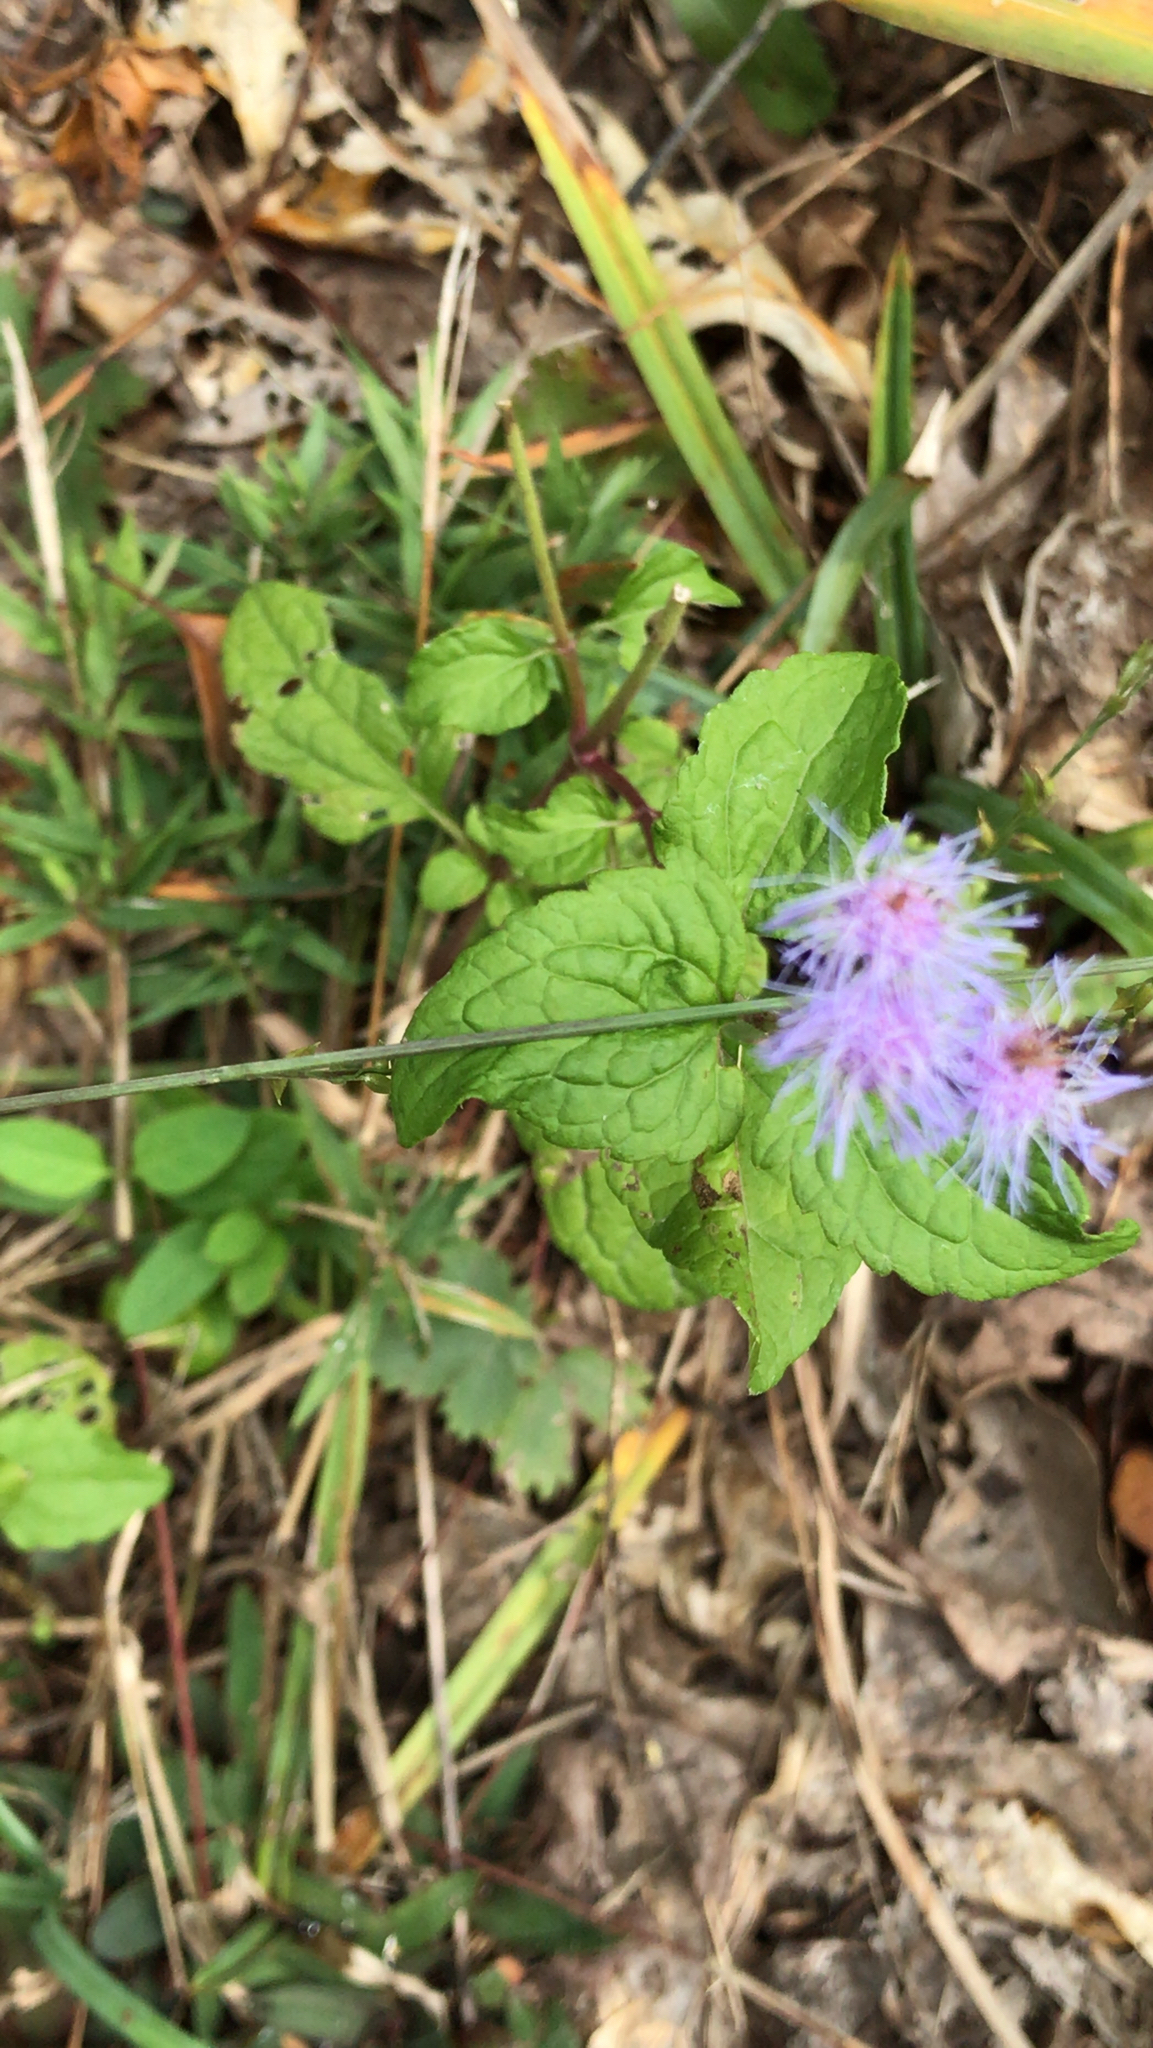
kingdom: Plantae
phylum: Tracheophyta
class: Magnoliopsida
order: Asterales
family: Asteraceae
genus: Conoclinium
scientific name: Conoclinium coelestinum
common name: Blue mistflower
